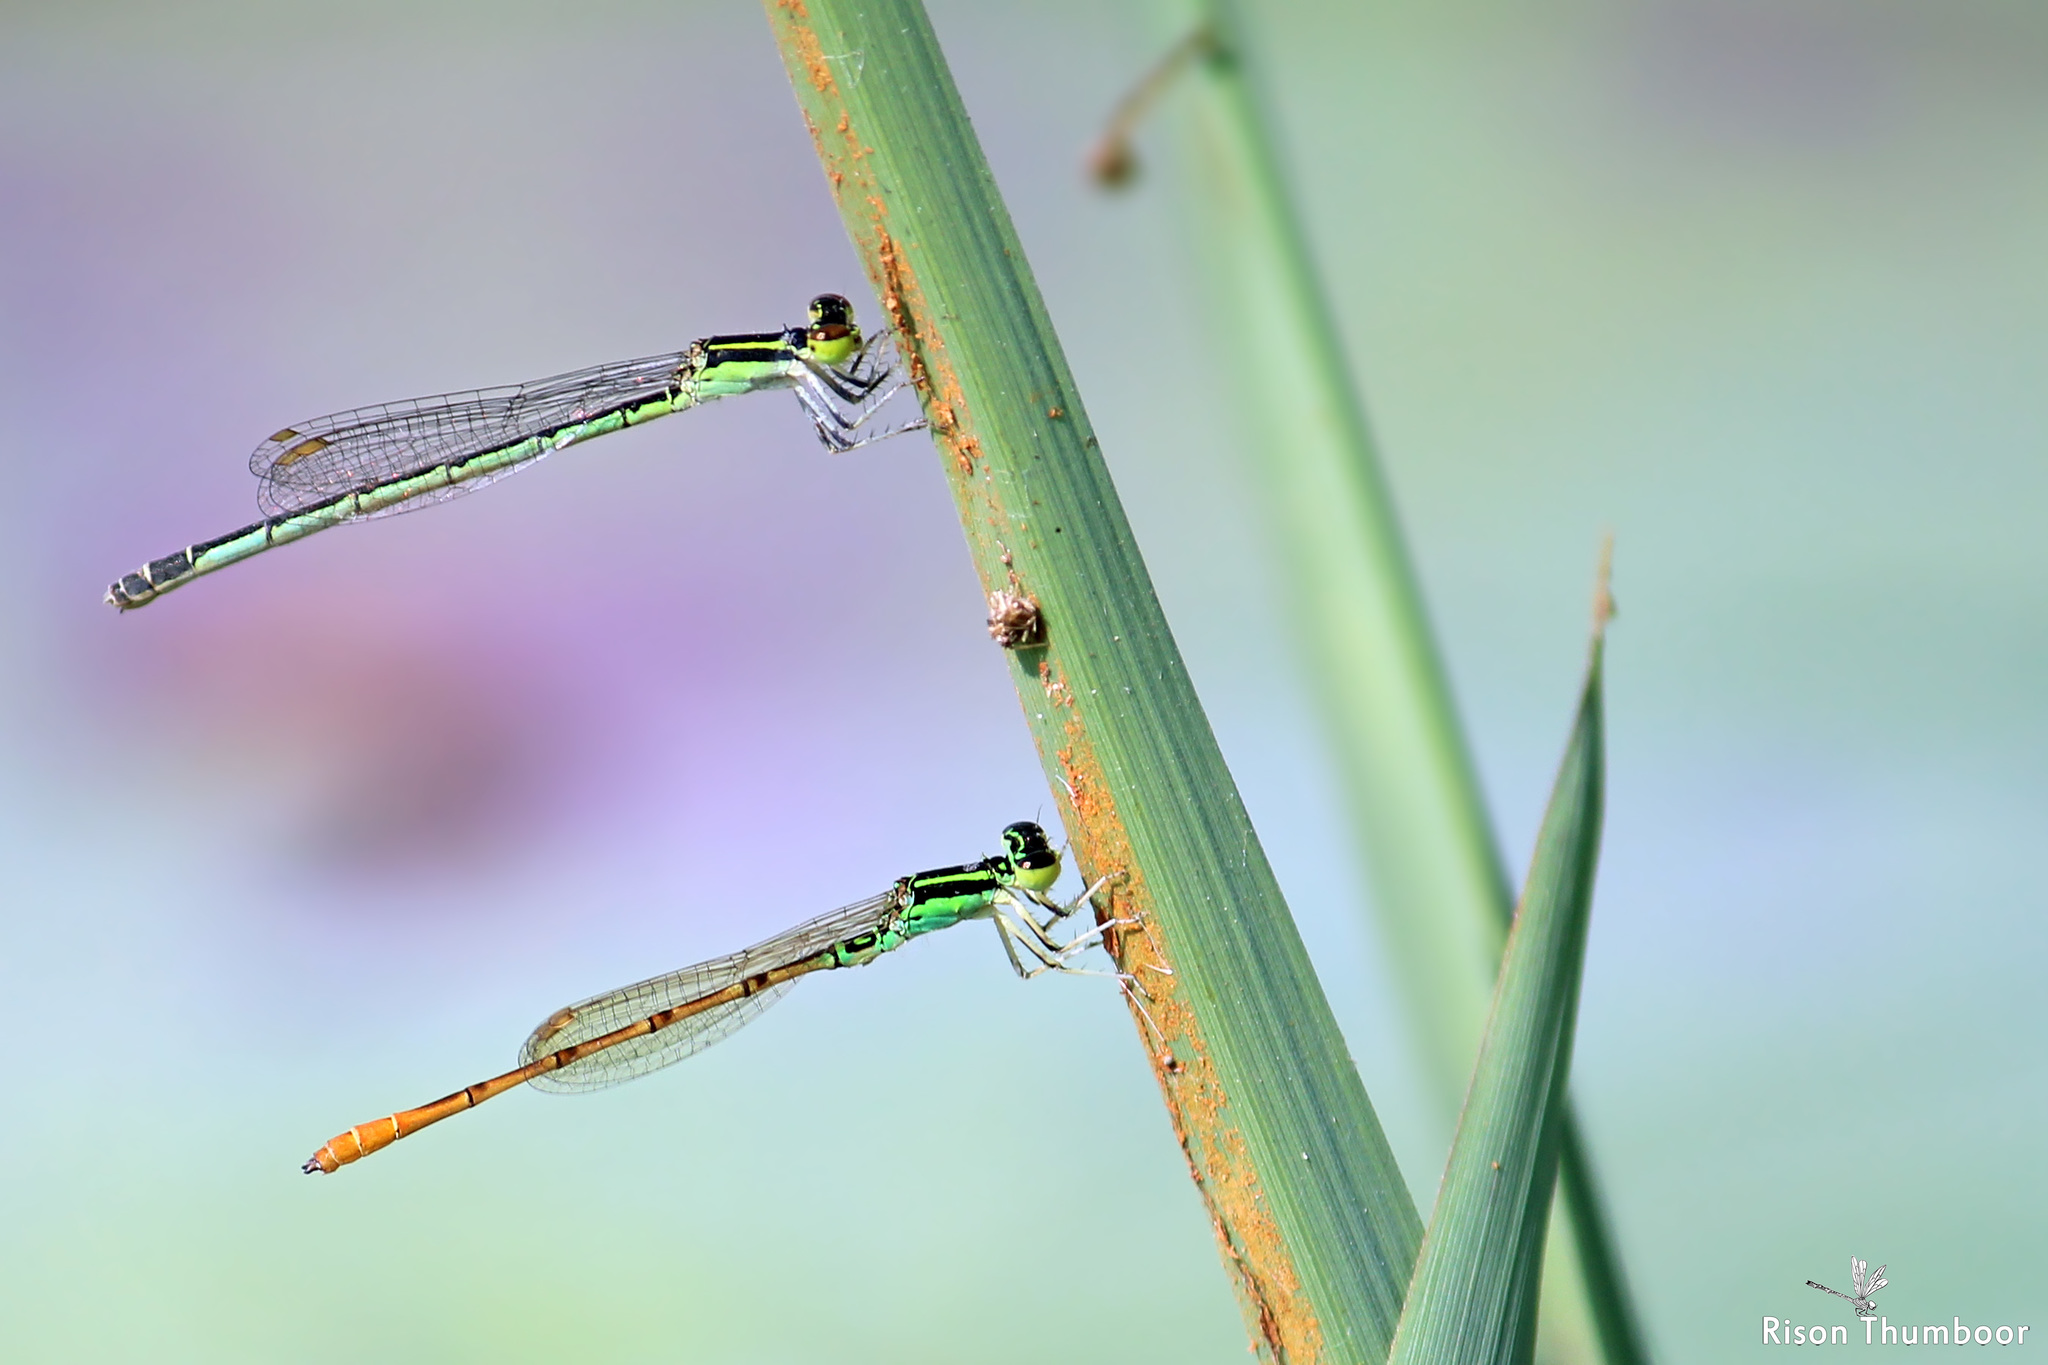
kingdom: Animalia
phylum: Arthropoda
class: Insecta
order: Odonata
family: Coenagrionidae
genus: Agriocnemis
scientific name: Agriocnemis keralensis
